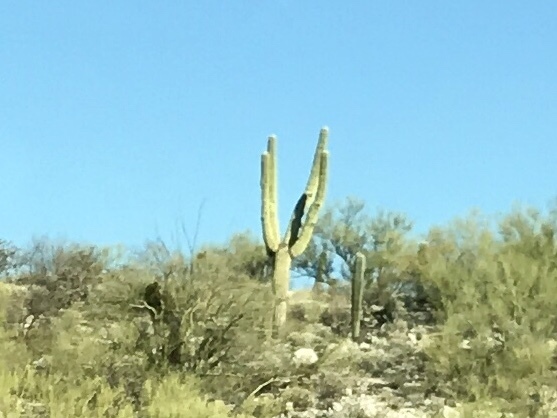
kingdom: Plantae
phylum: Tracheophyta
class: Magnoliopsida
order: Caryophyllales
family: Cactaceae
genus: Carnegiea
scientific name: Carnegiea gigantea
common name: Saguaro
